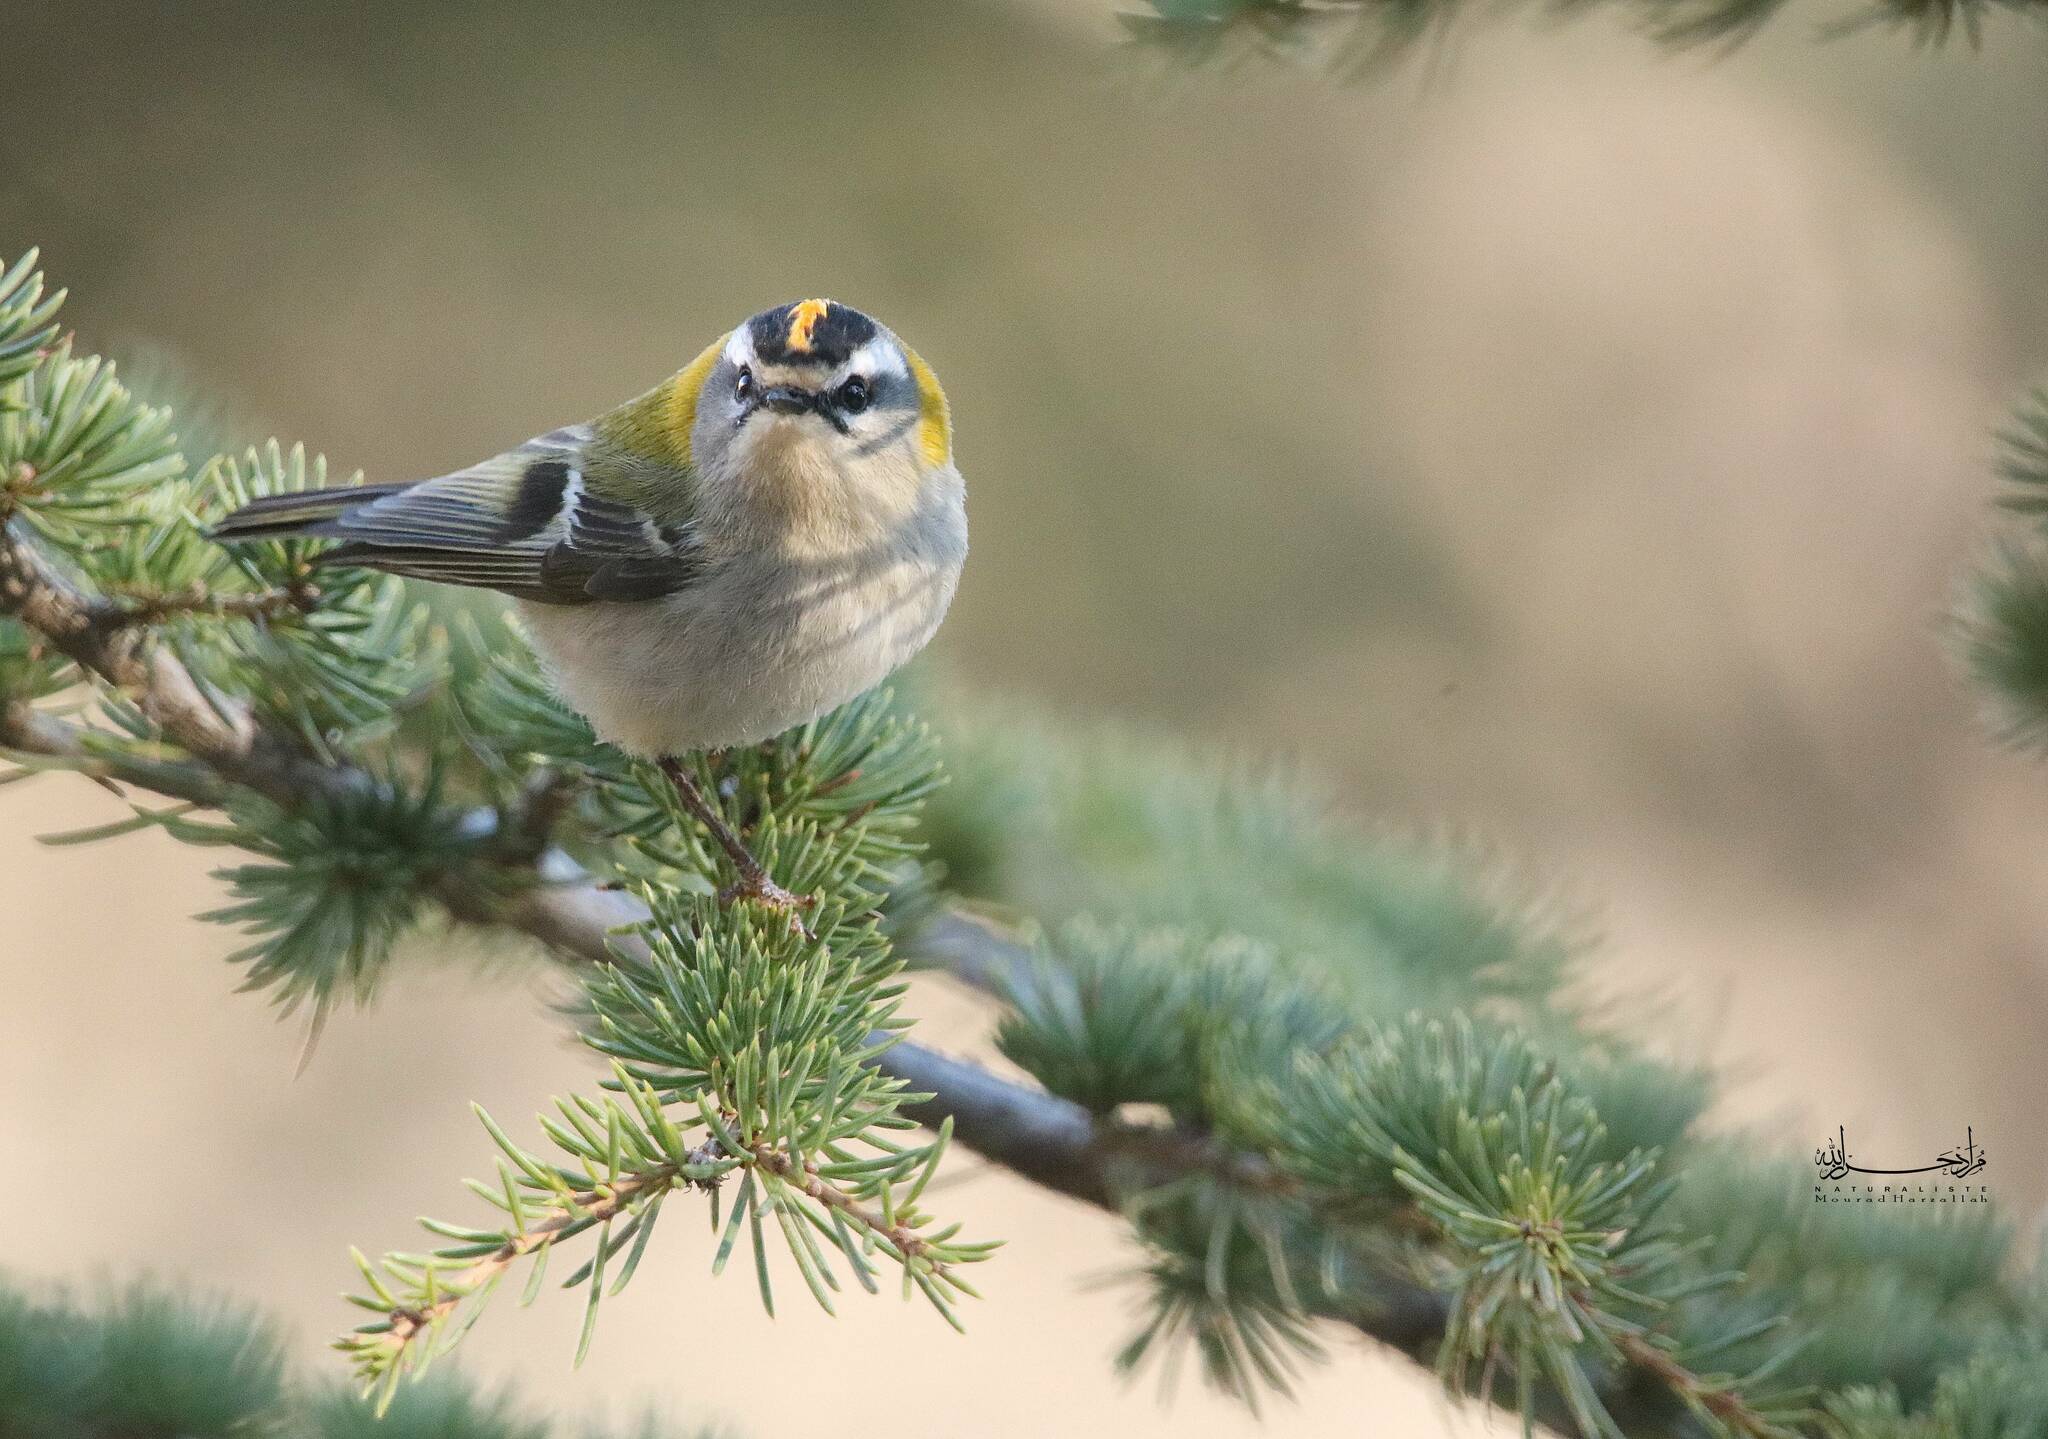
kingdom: Animalia
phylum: Chordata
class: Aves
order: Passeriformes
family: Regulidae
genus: Regulus
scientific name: Regulus ignicapilla
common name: Firecrest
